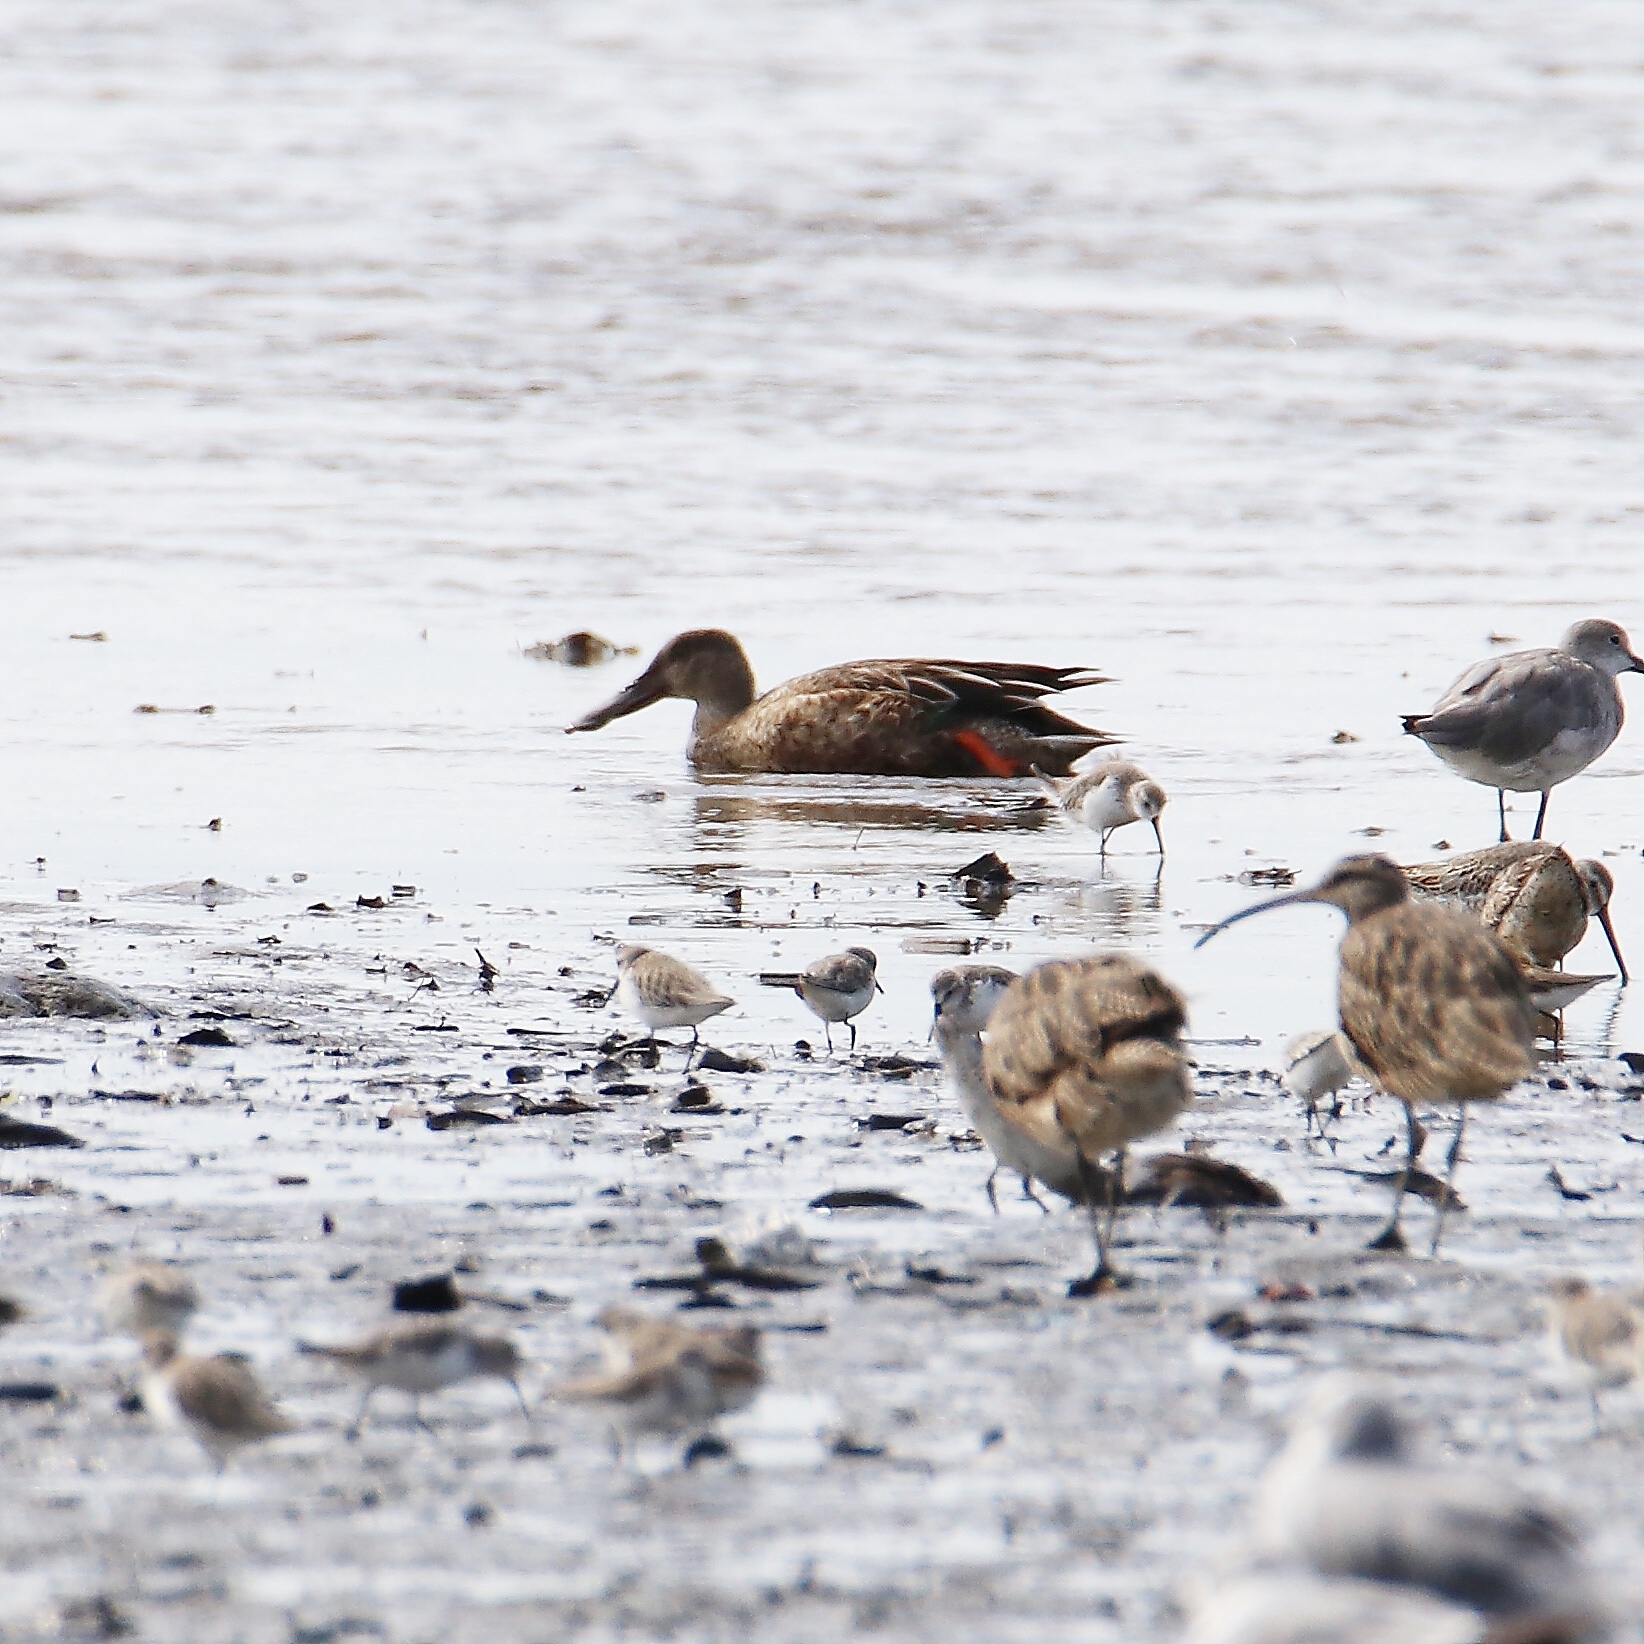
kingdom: Animalia
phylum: Chordata
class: Aves
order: Anseriformes
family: Anatidae
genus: Spatula
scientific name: Spatula clypeata
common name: Northern shoveler
